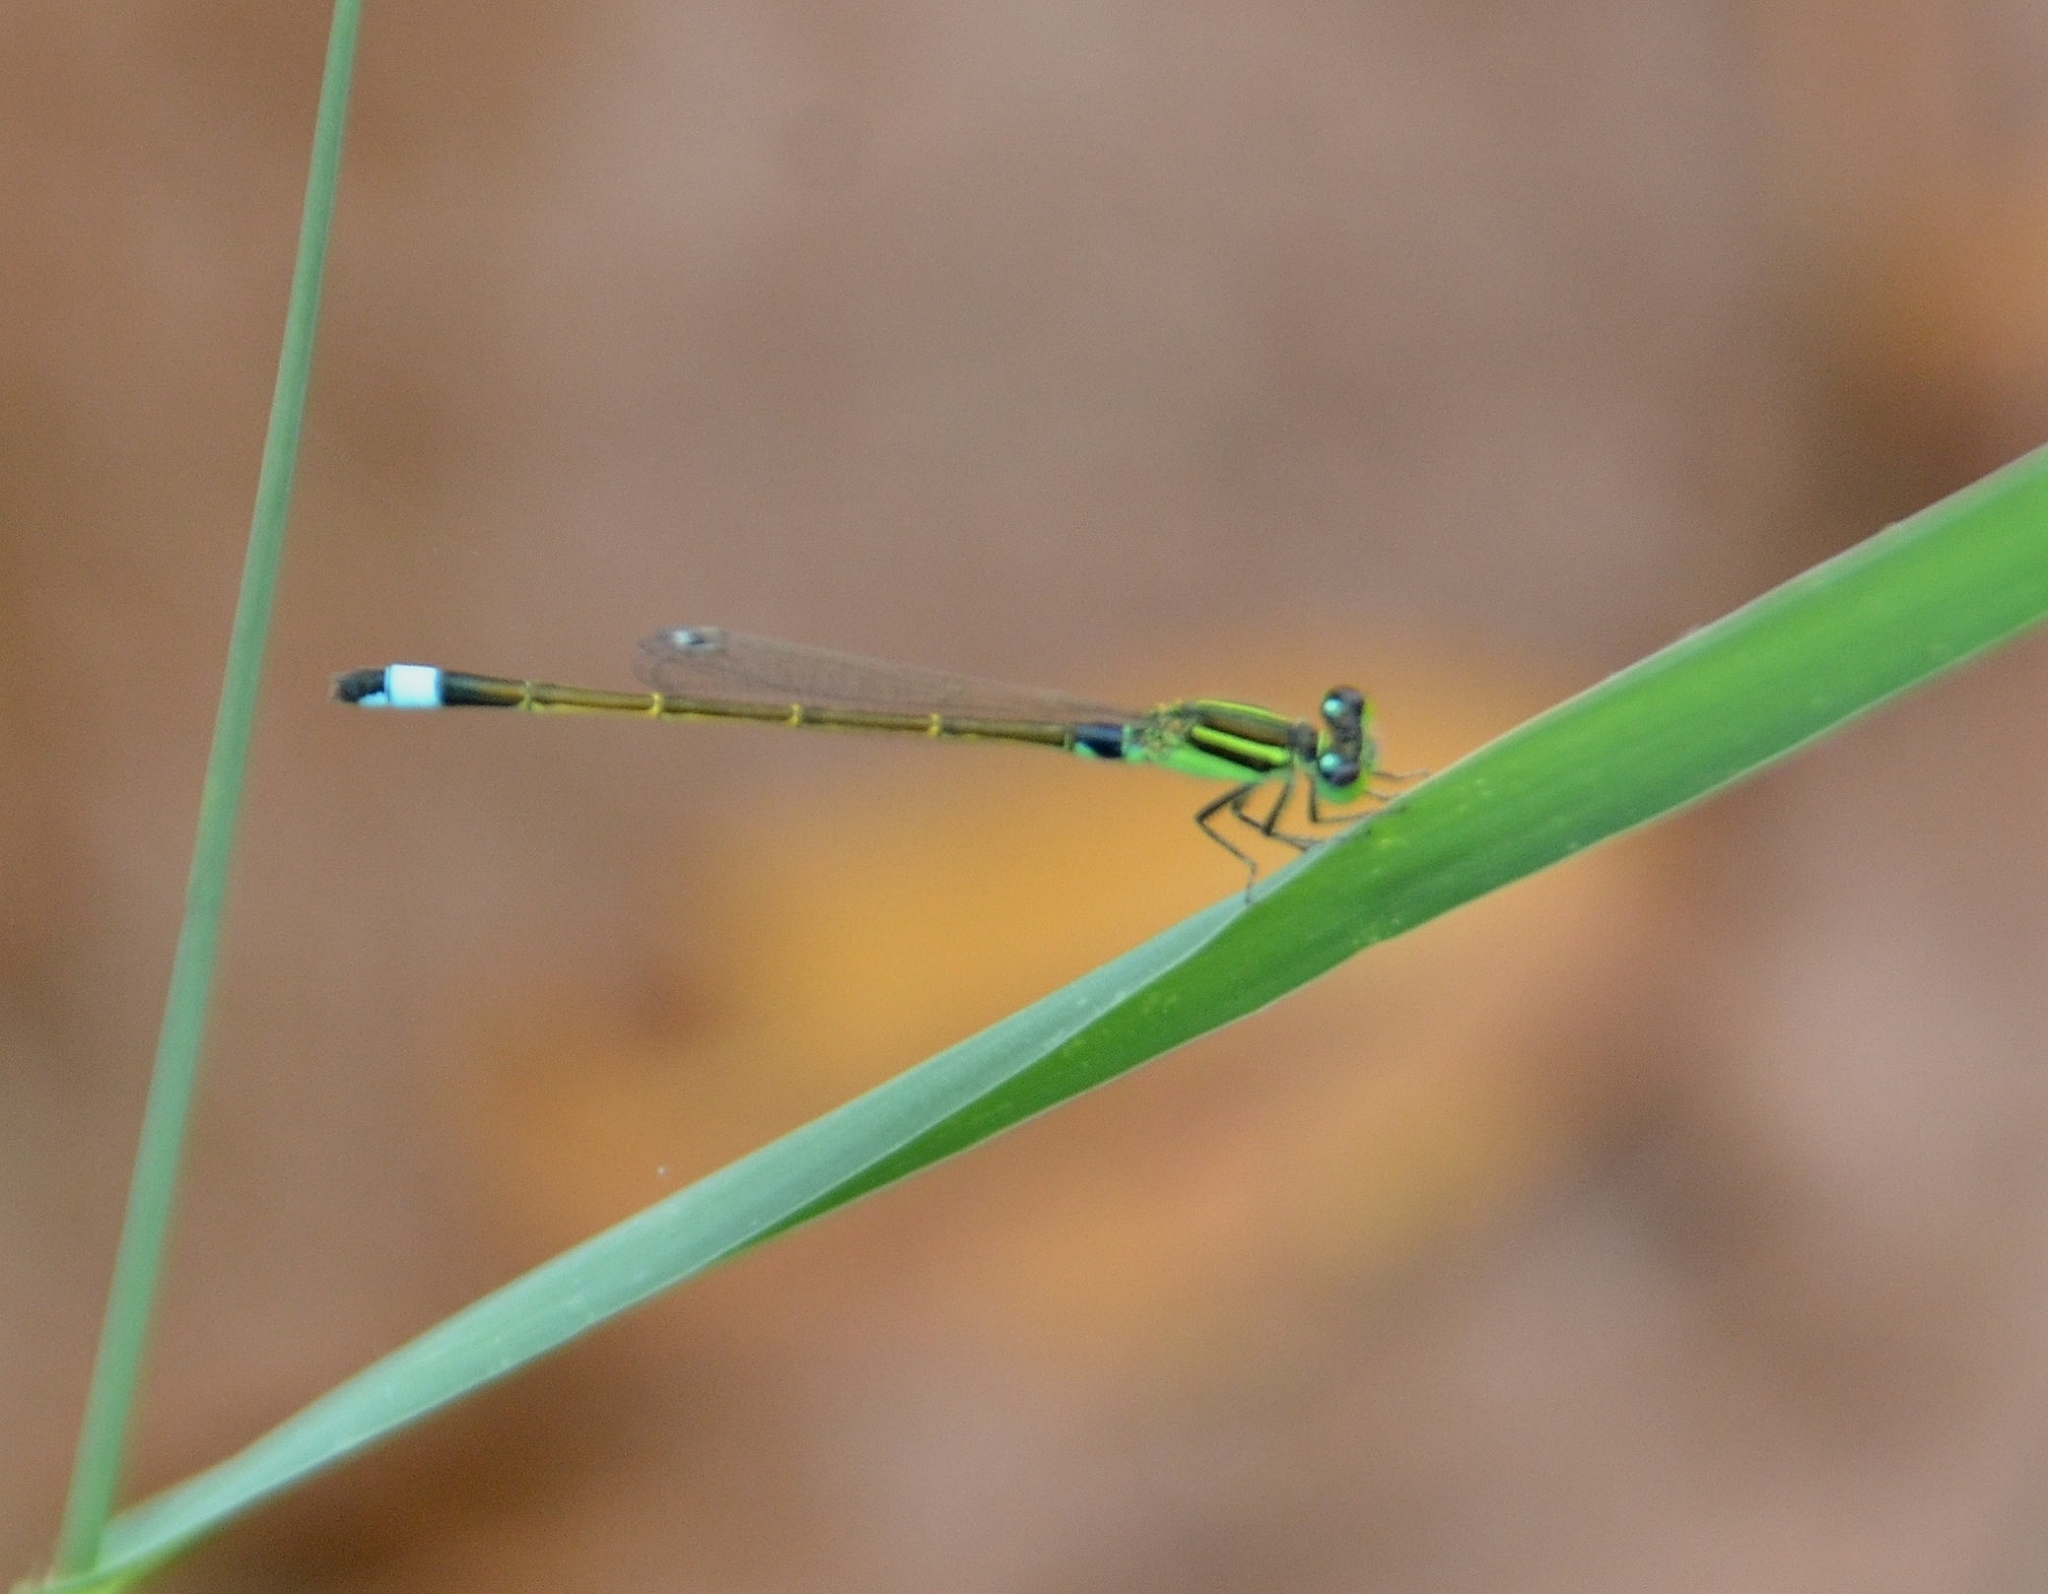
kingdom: Animalia
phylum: Arthropoda
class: Insecta
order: Odonata
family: Coenagrionidae
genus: Ischnura
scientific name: Ischnura senegalensis
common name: Tropical bluetail
